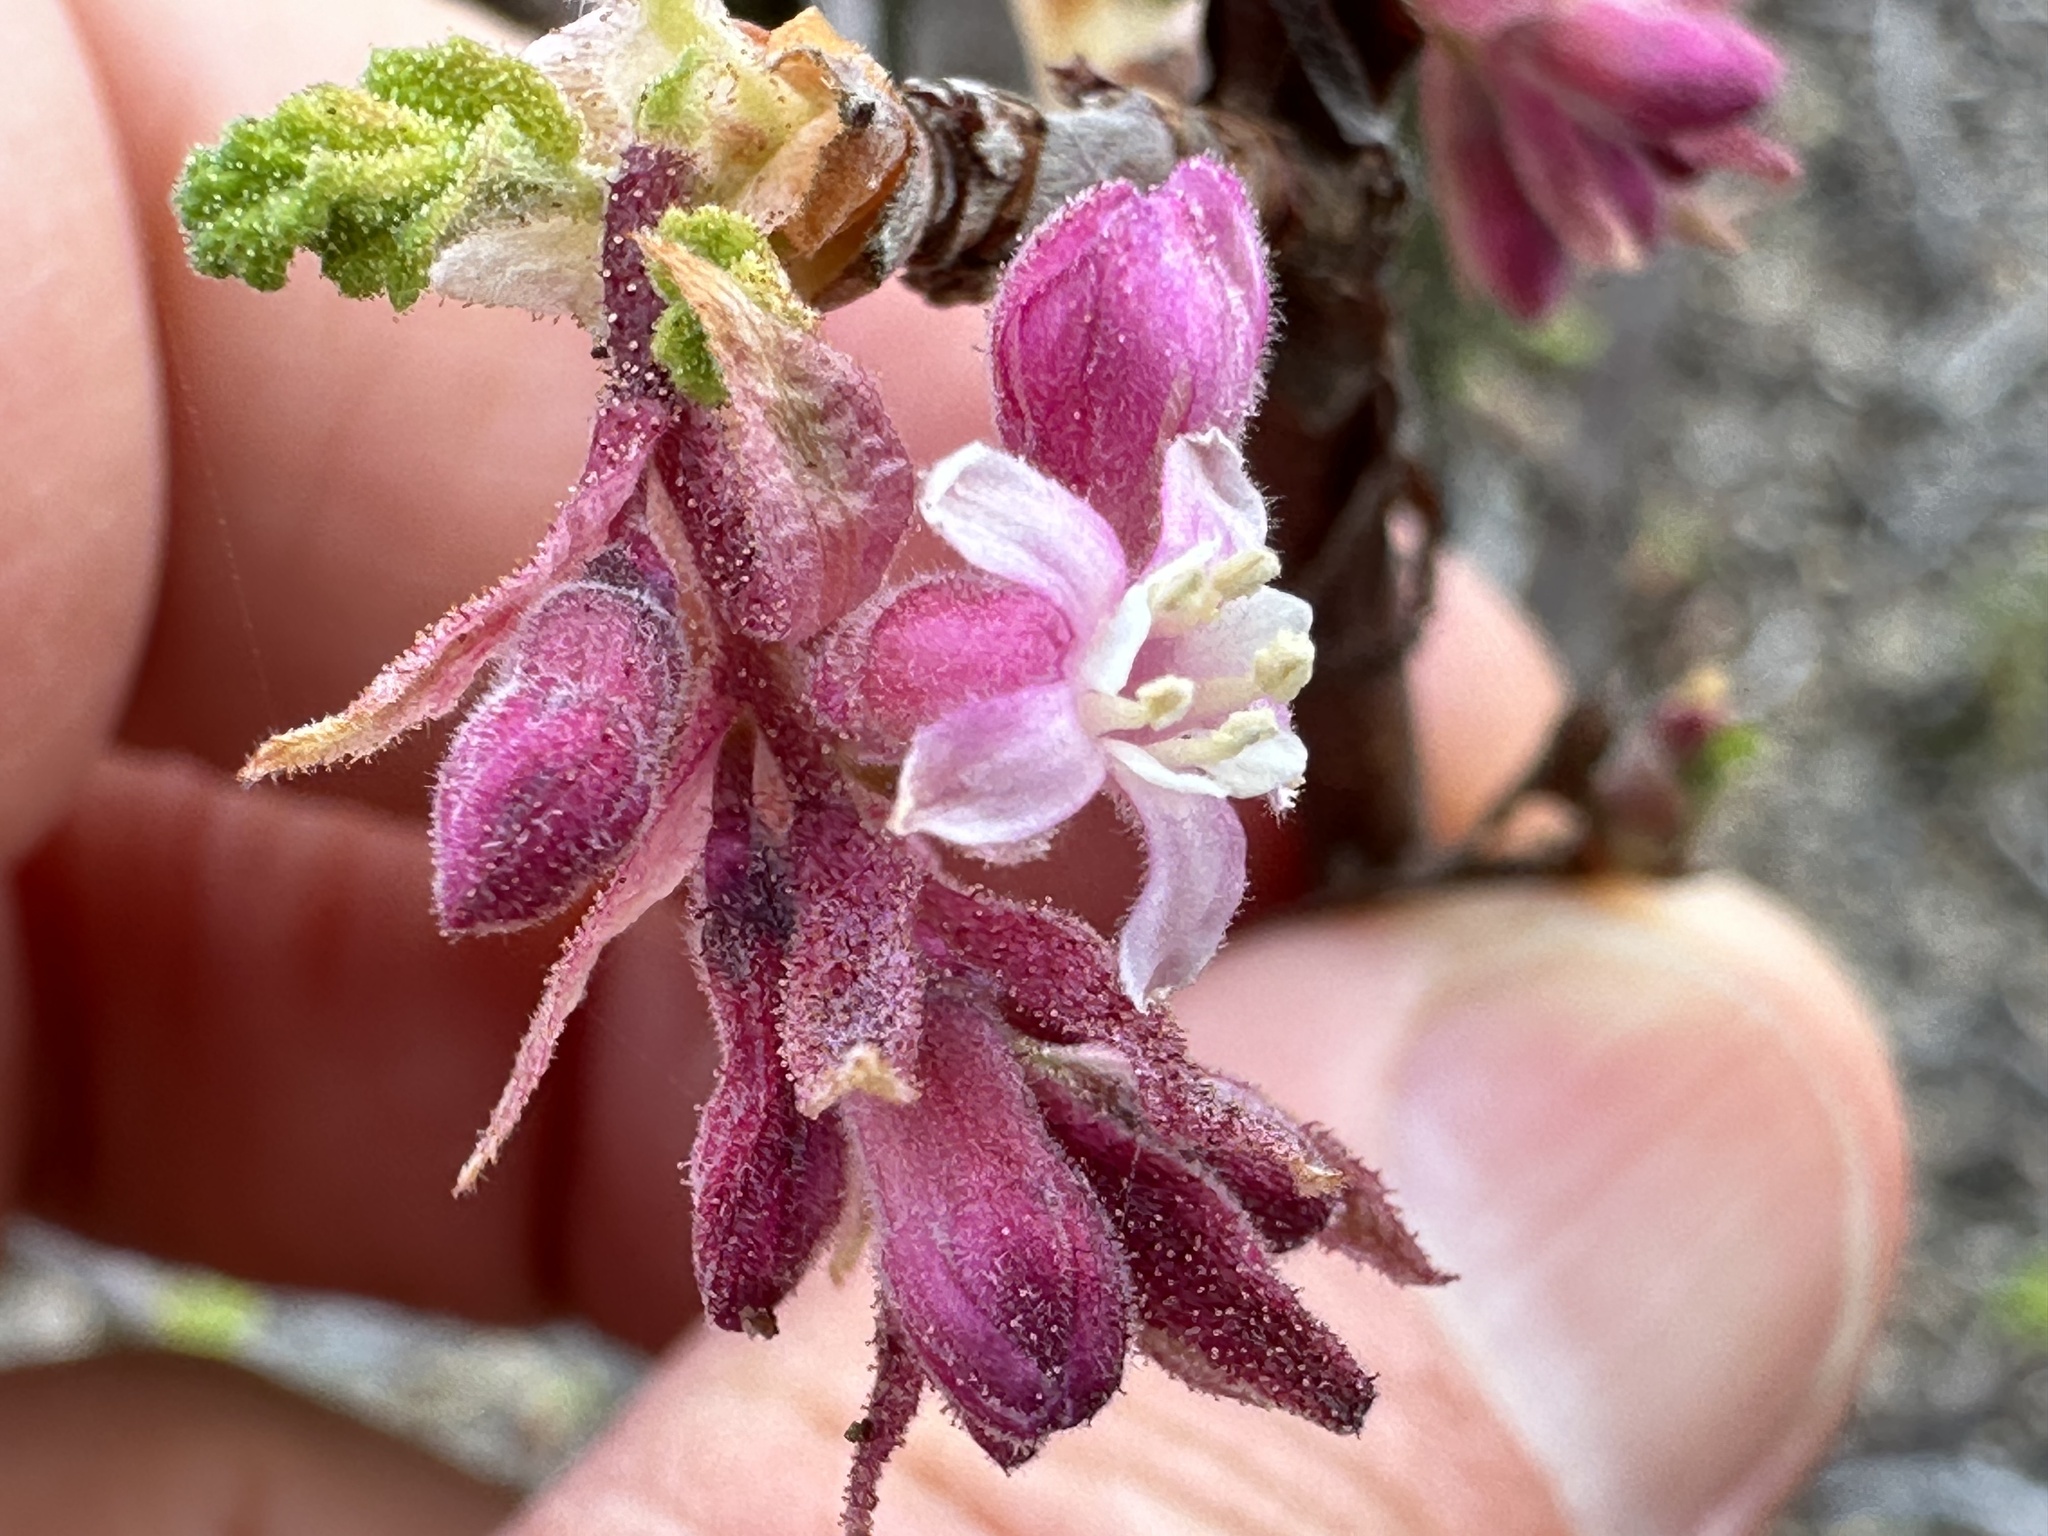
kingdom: Plantae
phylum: Tracheophyta
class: Magnoliopsida
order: Saxifragales
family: Grossulariaceae
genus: Ribes
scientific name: Ribes malvaceum
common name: Chaparral currant
